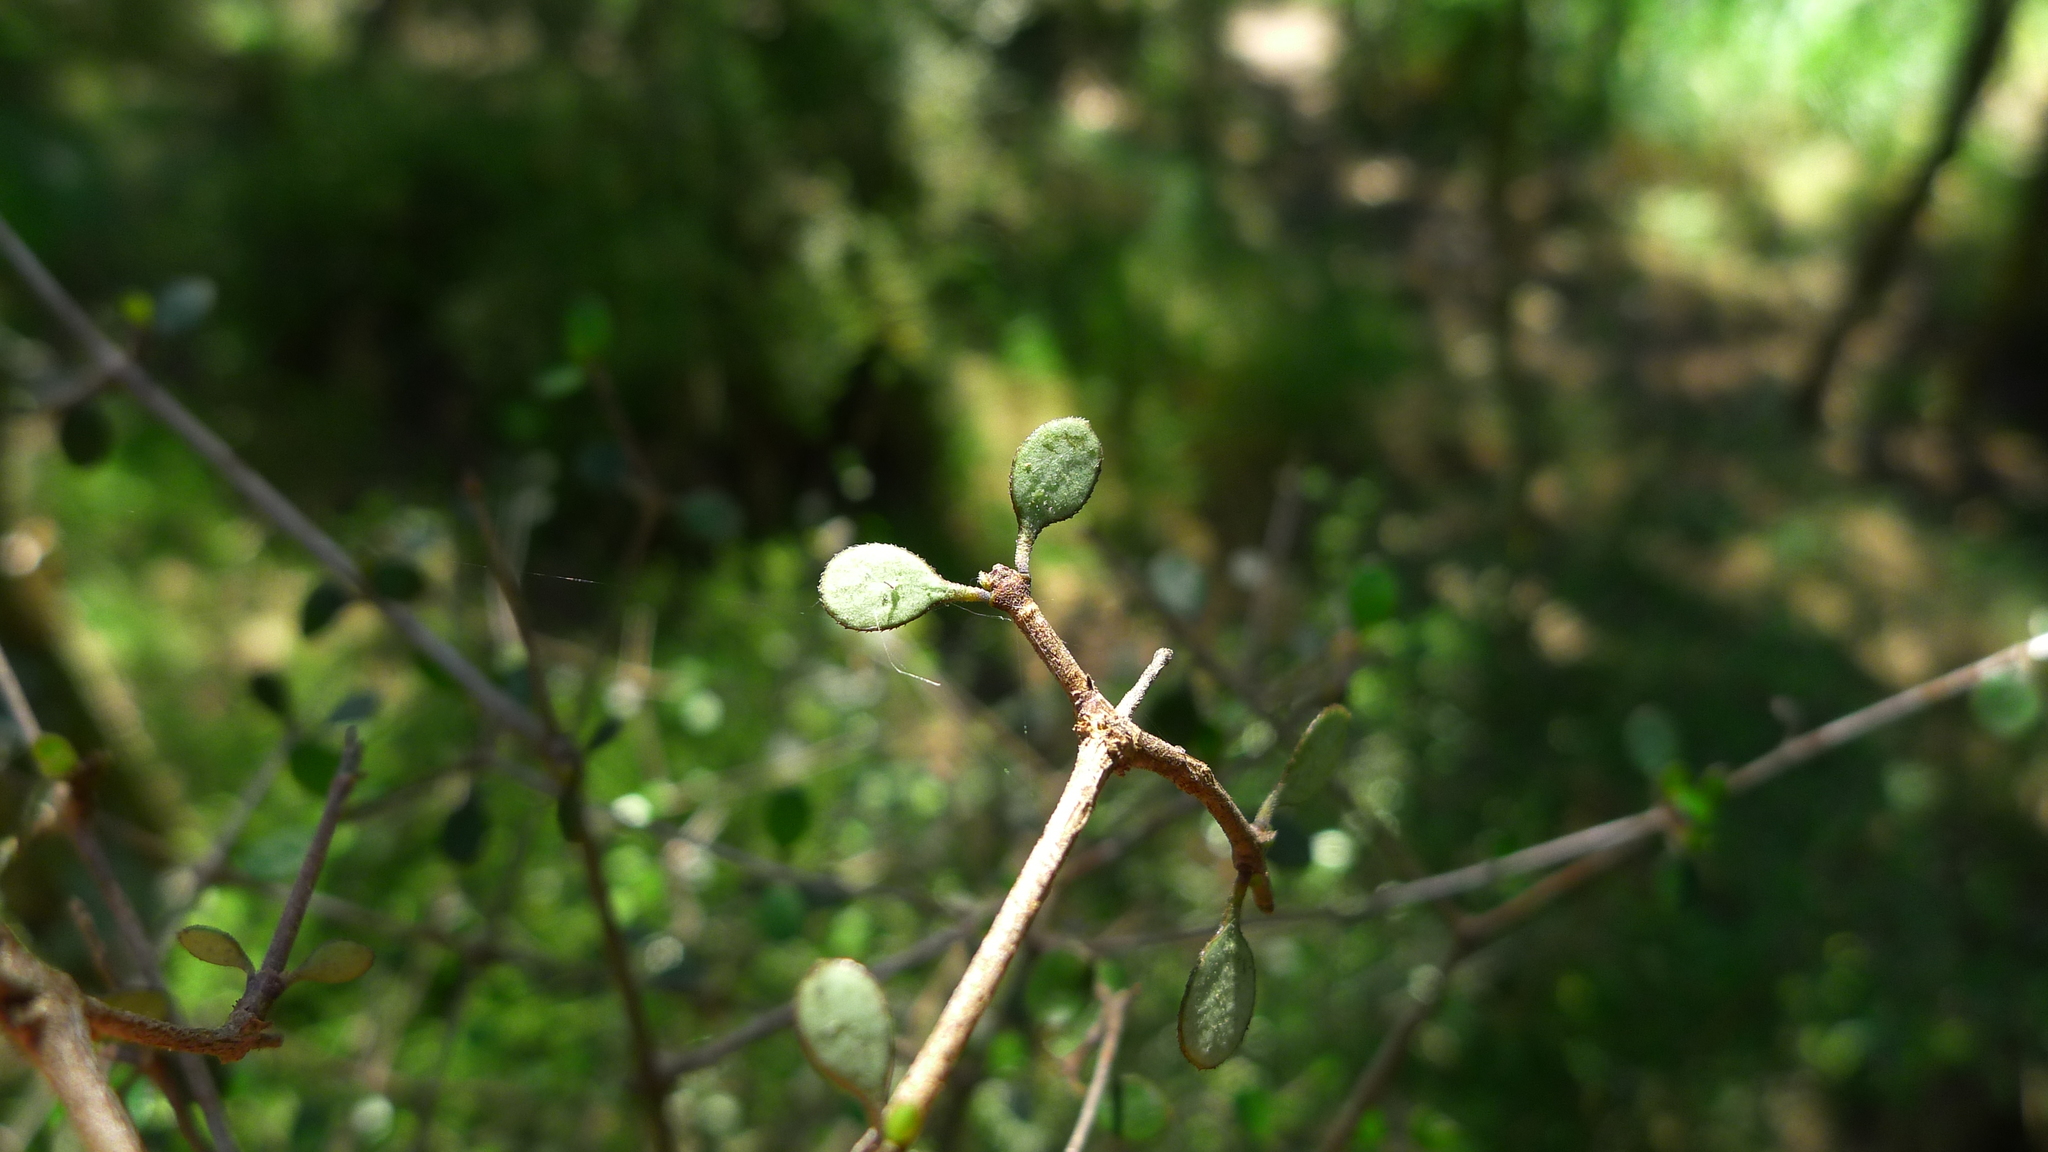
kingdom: Plantae
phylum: Tracheophyta
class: Magnoliopsida
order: Gentianales
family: Rubiaceae
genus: Coprosma
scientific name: Coprosma crassifolia
